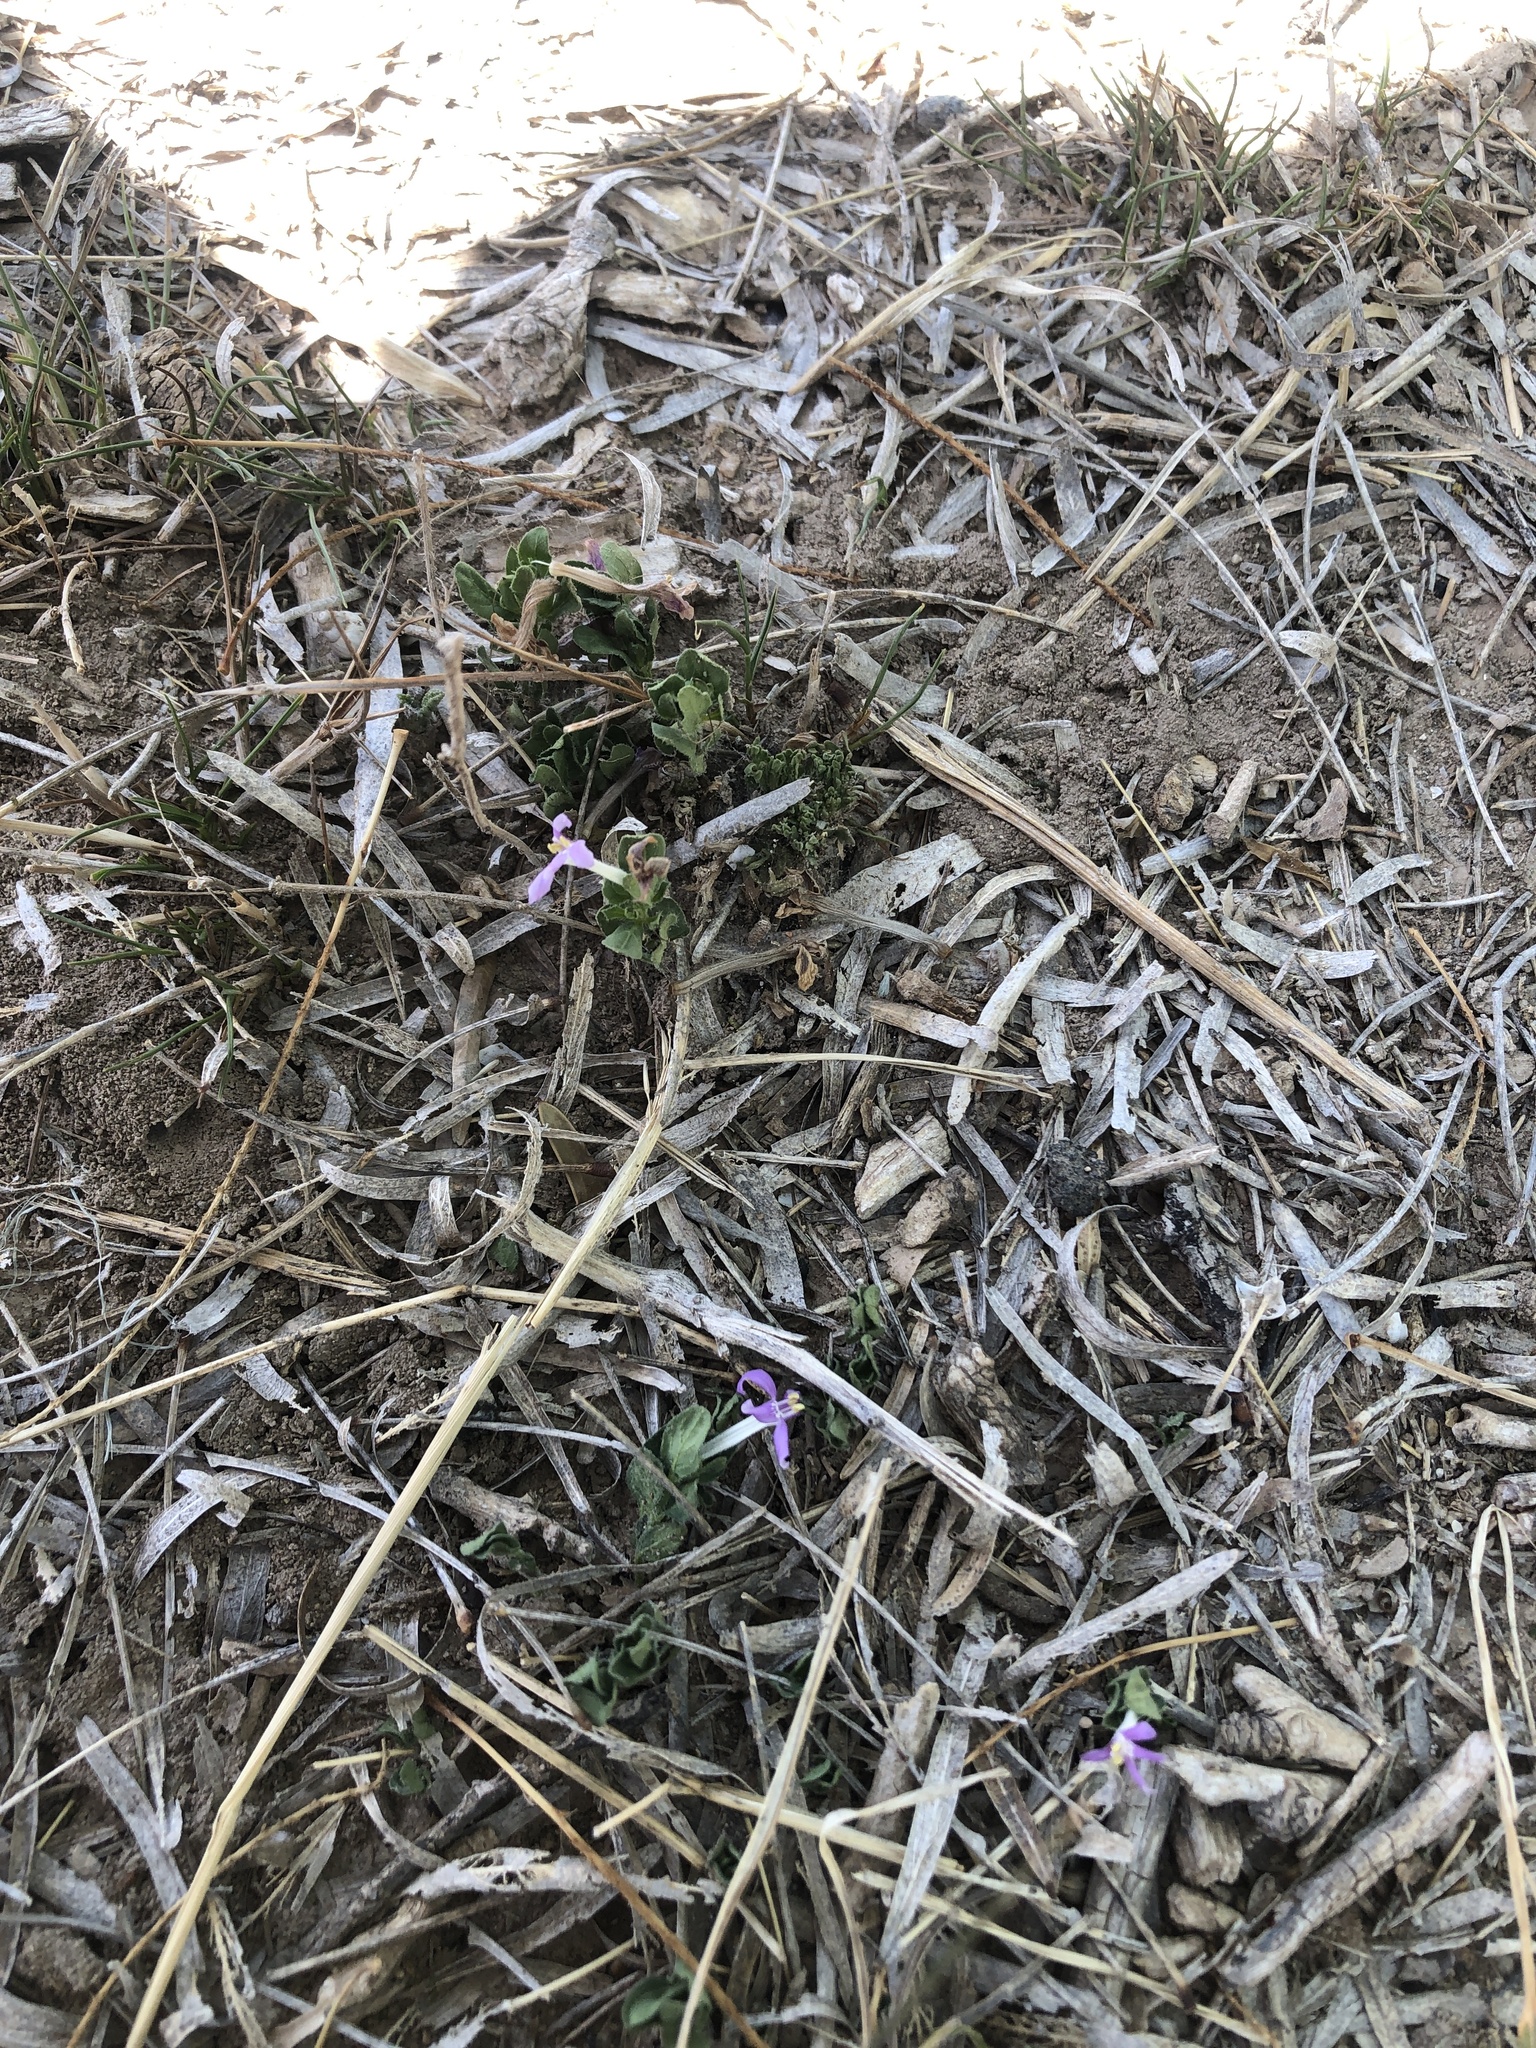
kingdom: Plantae
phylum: Tracheophyta
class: Magnoliopsida
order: Lamiales
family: Acanthaceae
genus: Justicia
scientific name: Justicia pilosella
